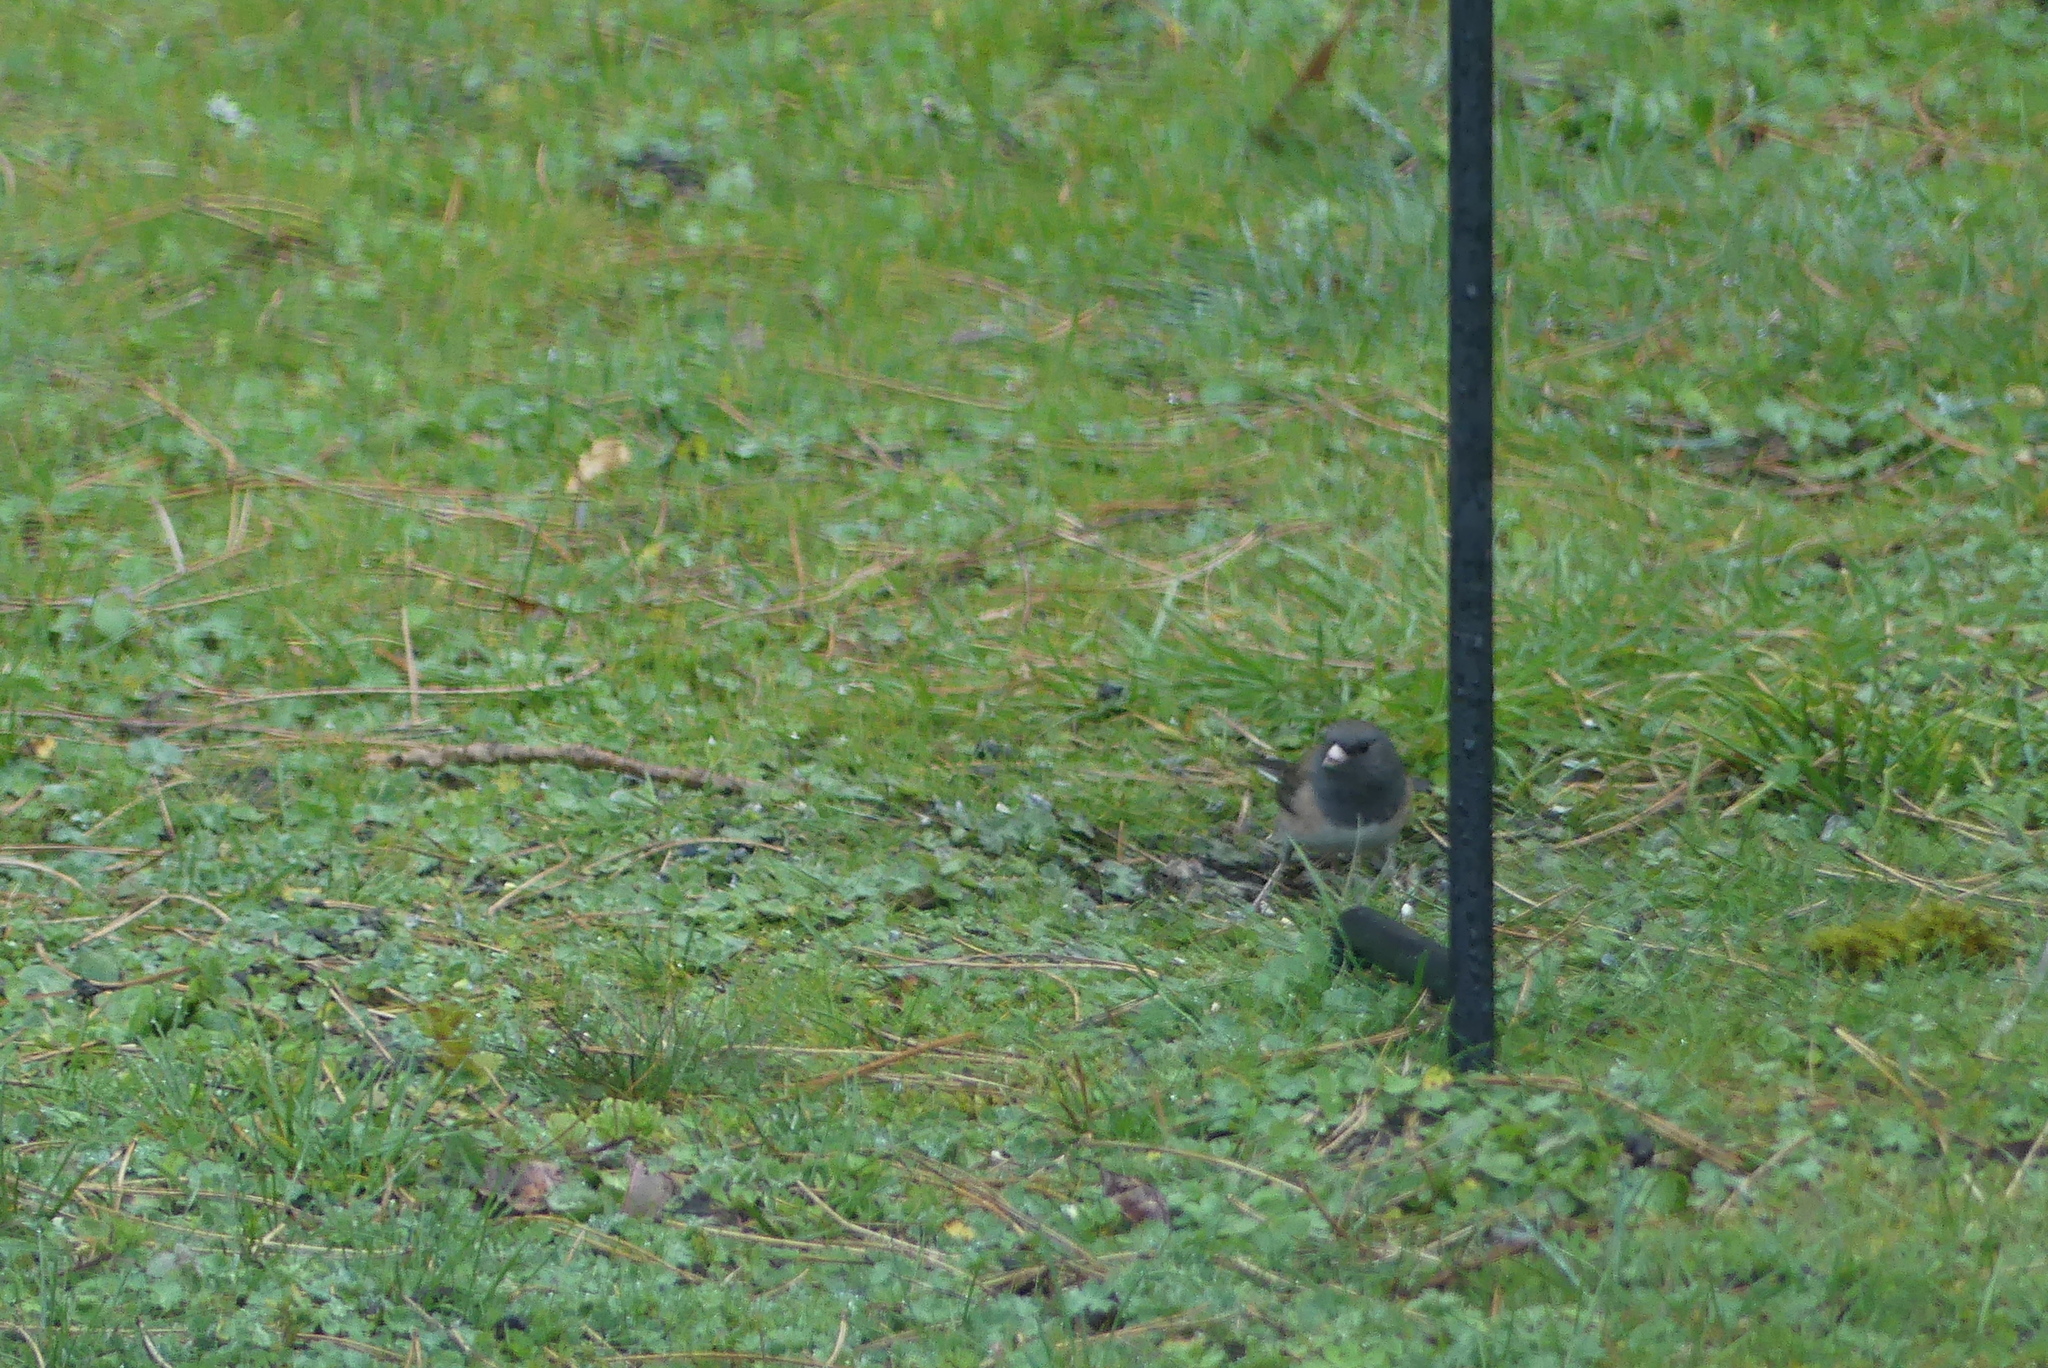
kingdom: Animalia
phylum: Chordata
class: Aves
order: Passeriformes
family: Passerellidae
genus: Junco
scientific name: Junco hyemalis
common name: Dark-eyed junco
